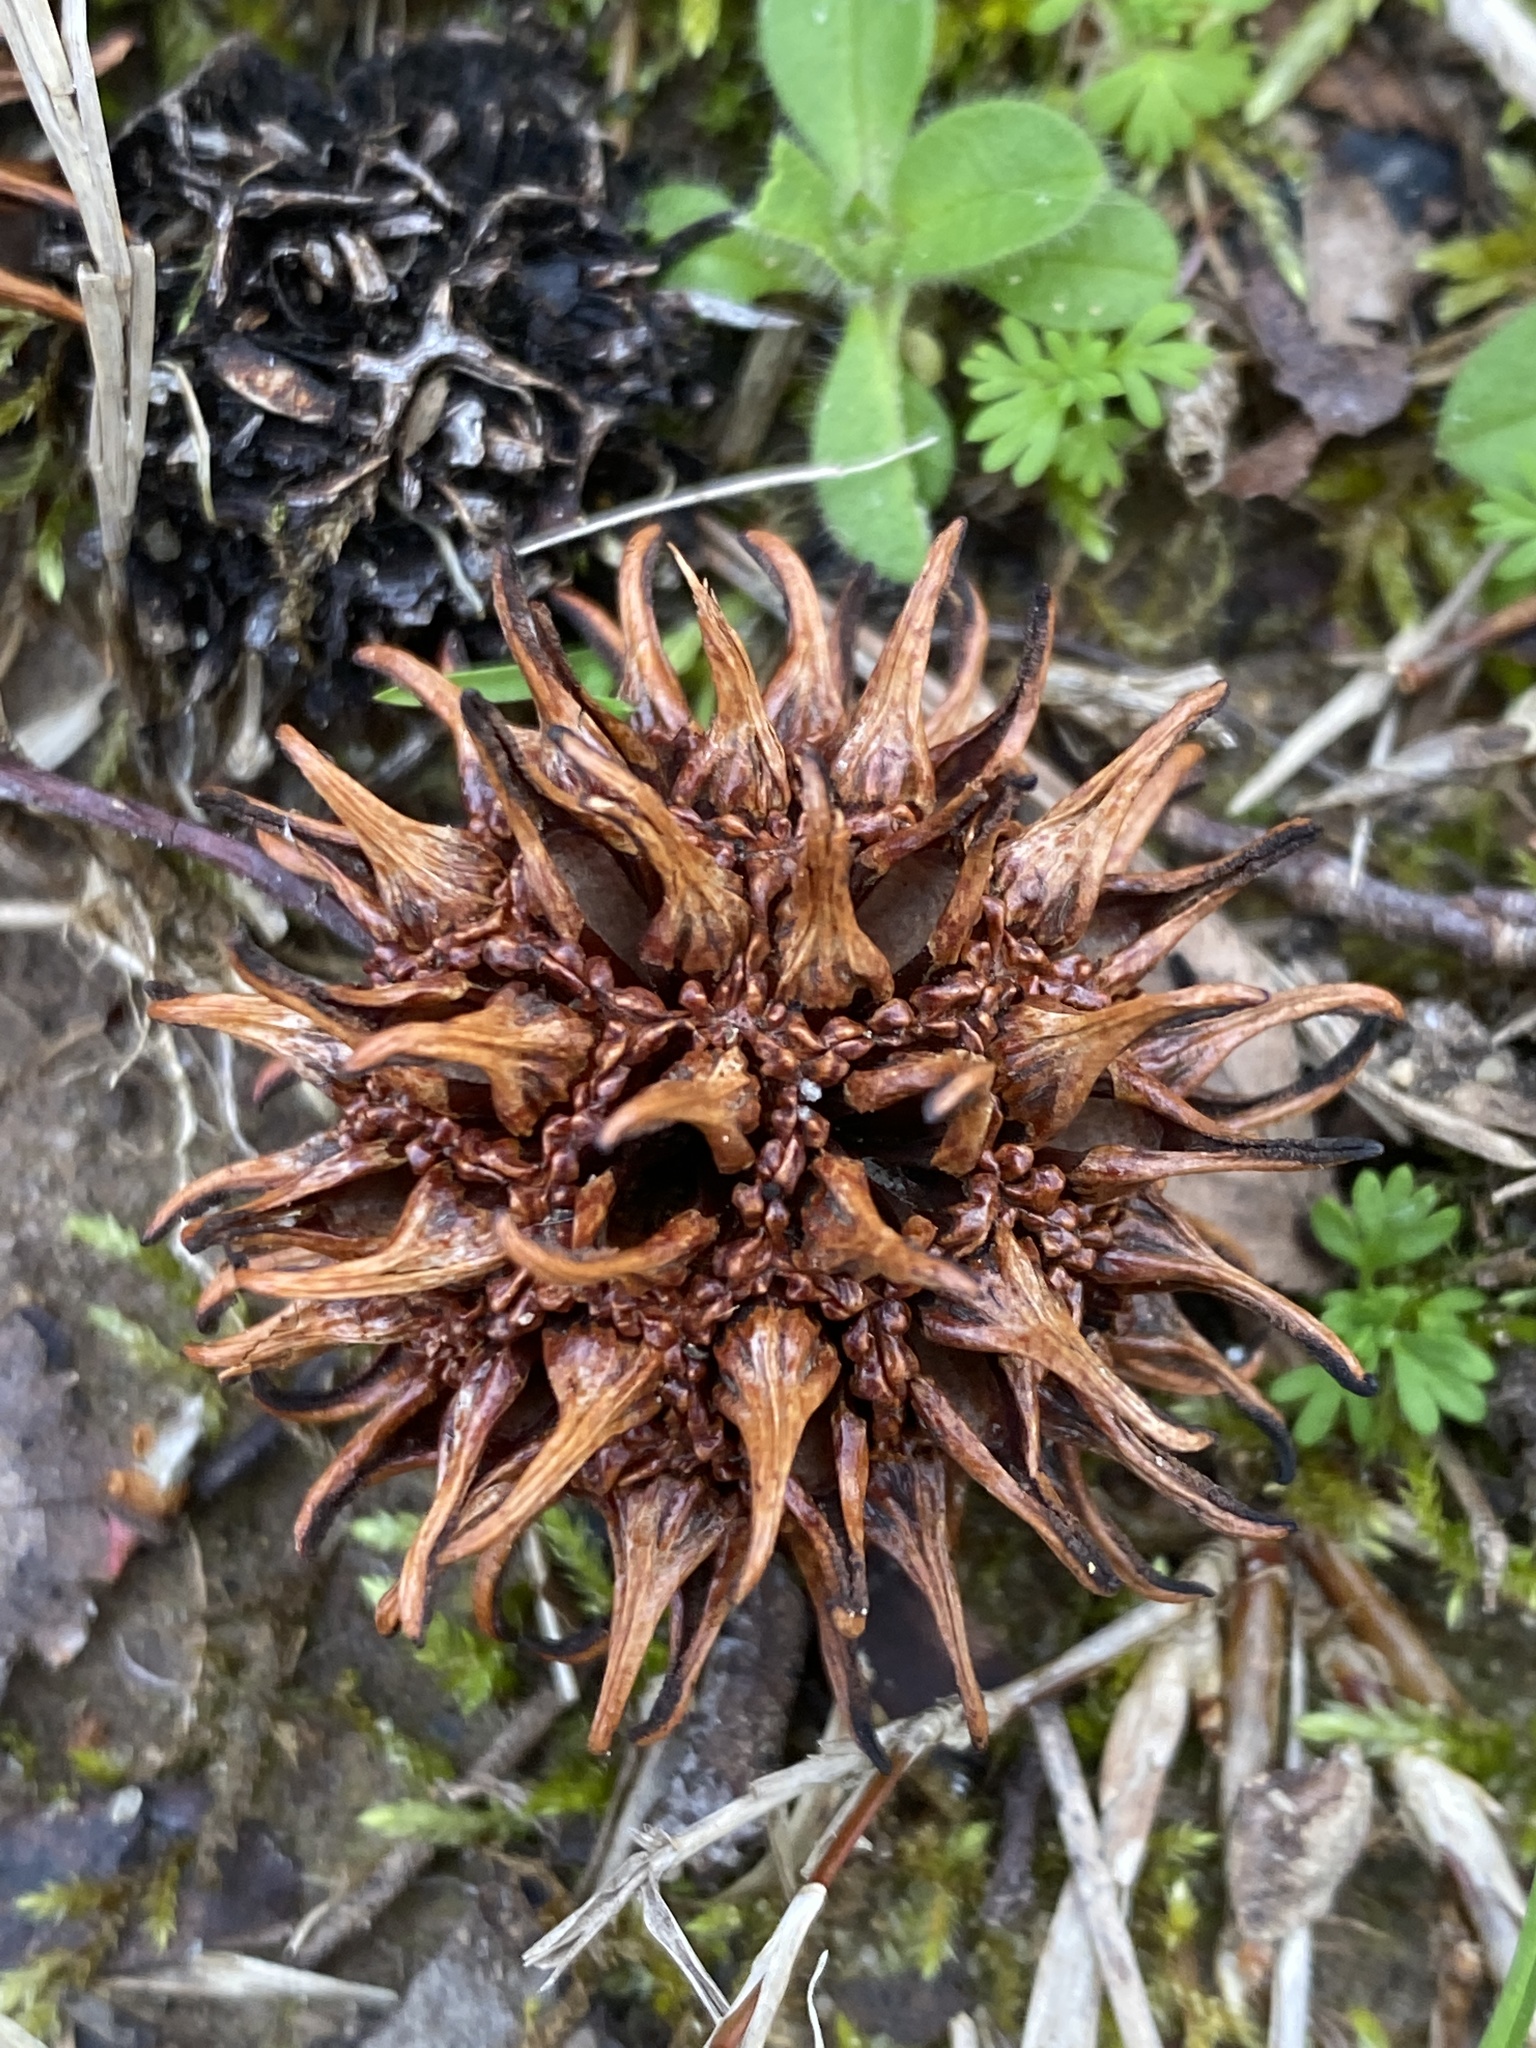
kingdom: Plantae
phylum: Tracheophyta
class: Magnoliopsida
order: Saxifragales
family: Altingiaceae
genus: Liquidambar
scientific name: Liquidambar styraciflua
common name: Sweet gum
